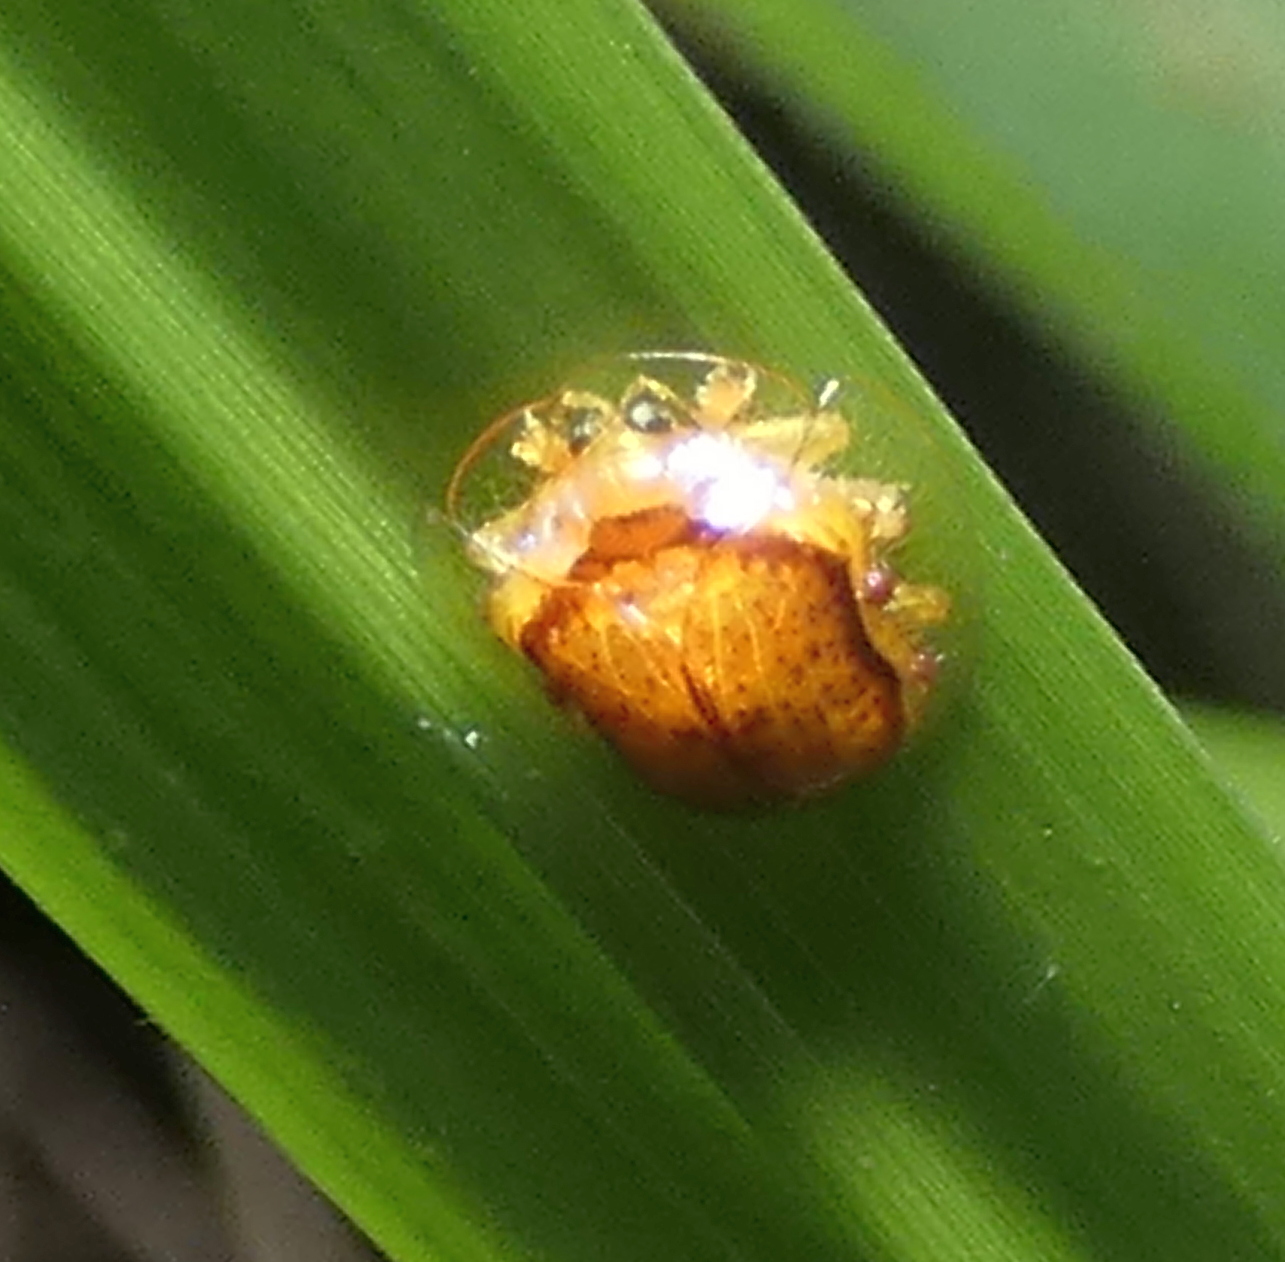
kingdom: Animalia
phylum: Arthropoda
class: Insecta
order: Coleoptera
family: Chrysomelidae
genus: Microctenochira
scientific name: Microctenochira quadrata
